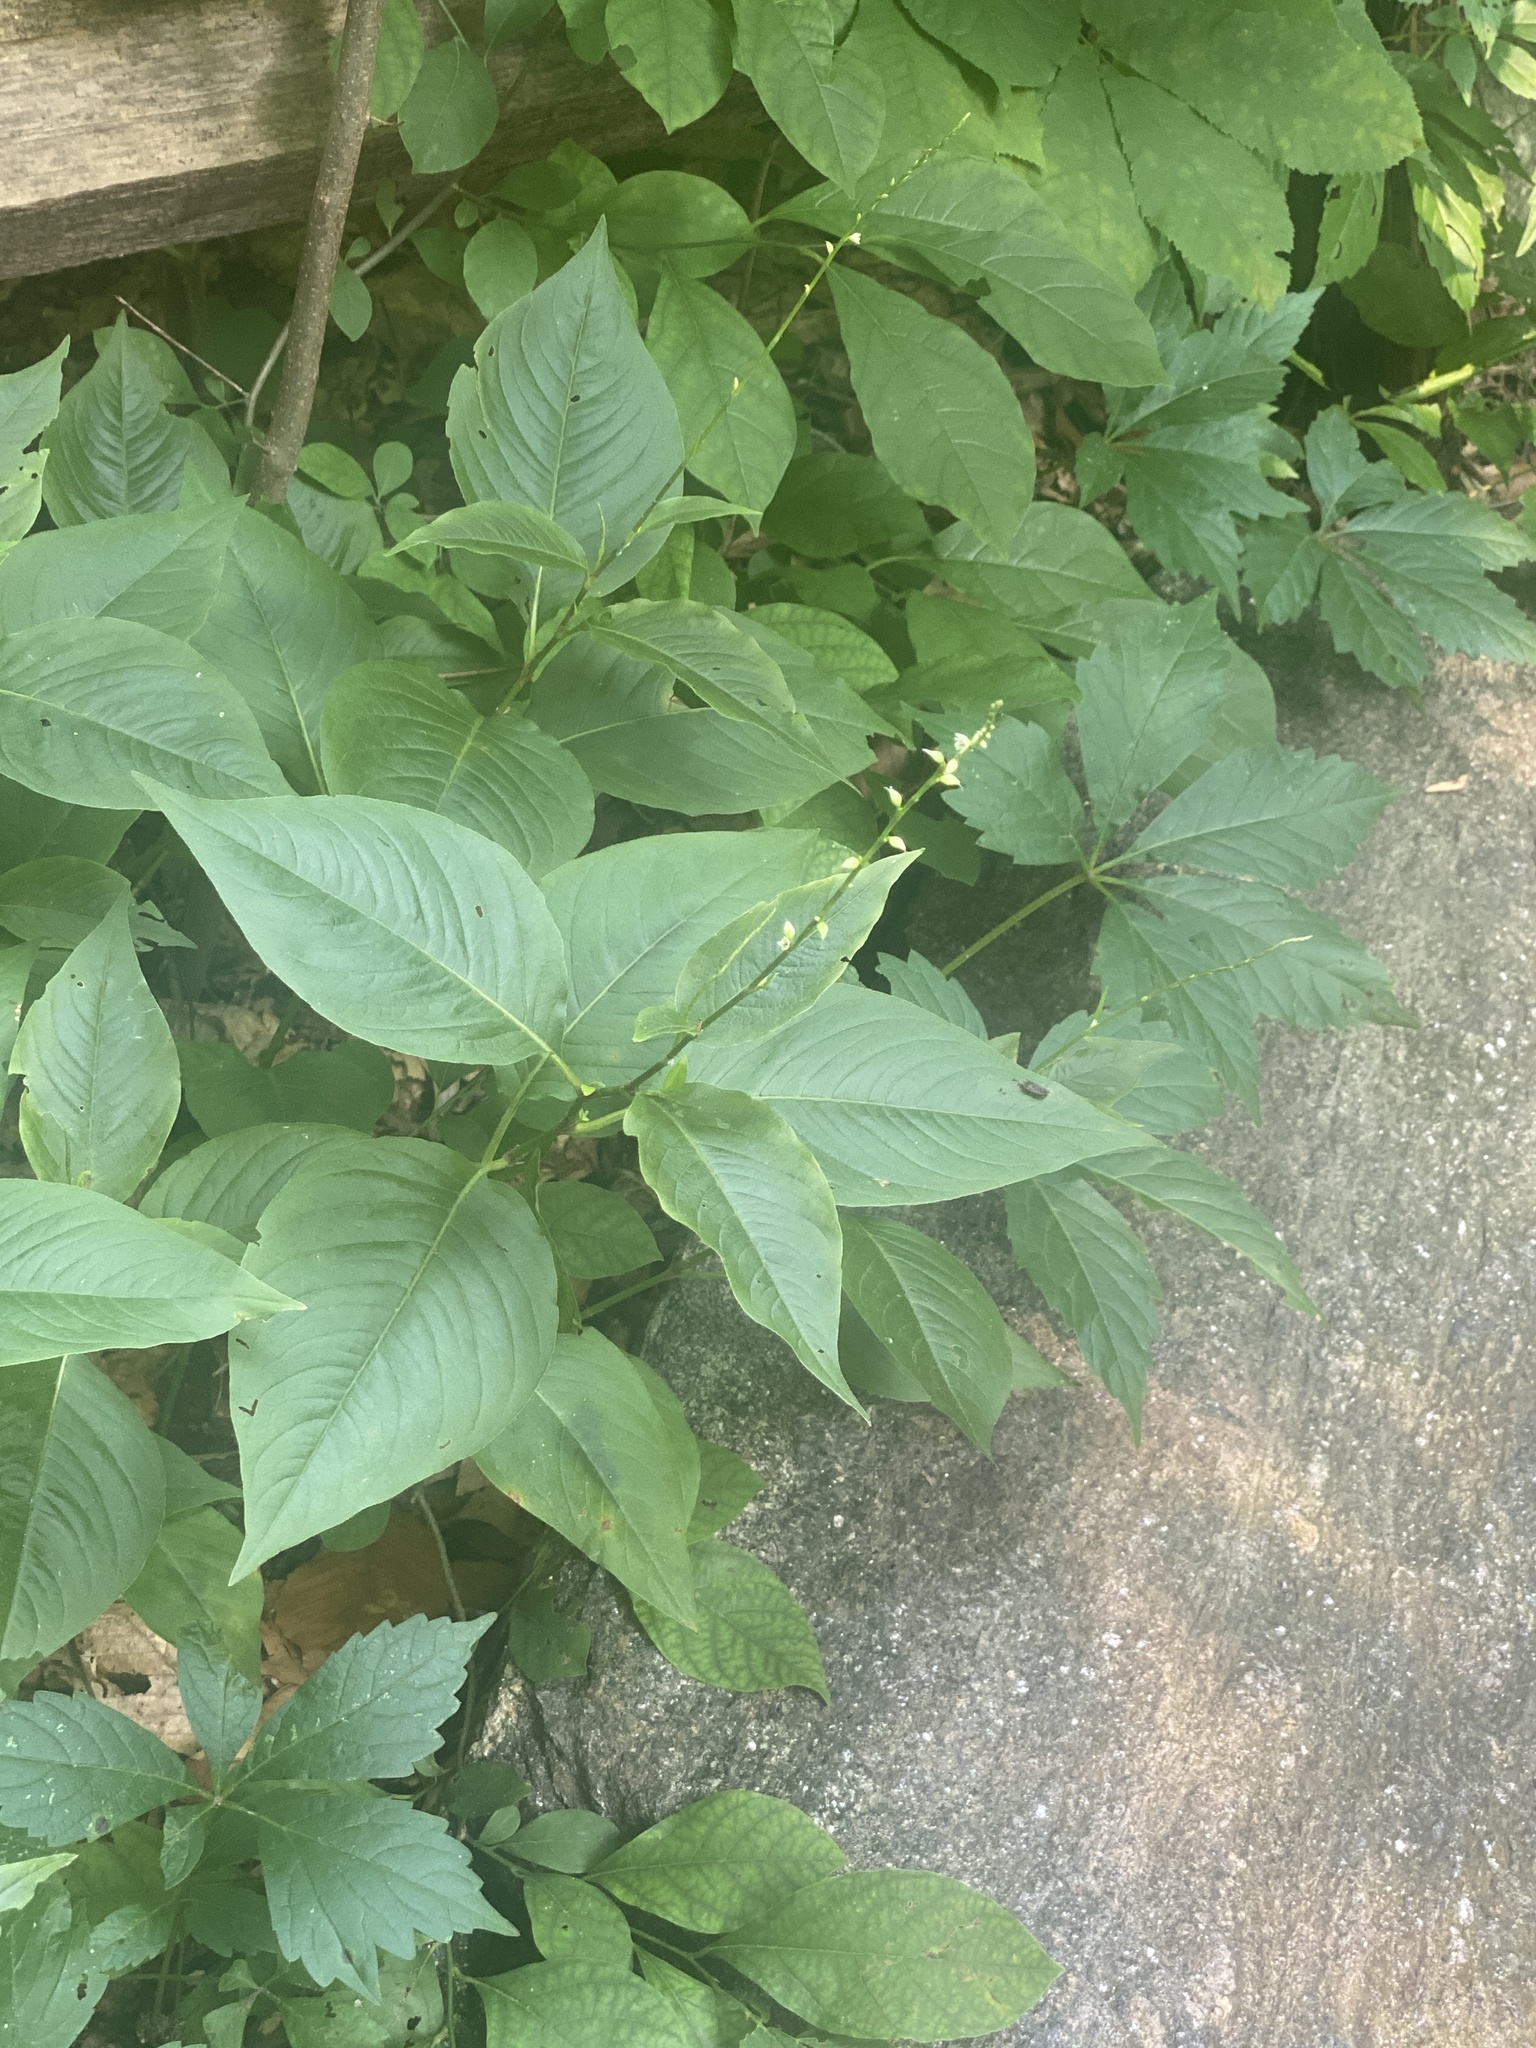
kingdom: Plantae
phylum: Tracheophyta
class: Magnoliopsida
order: Caryophyllales
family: Polygonaceae
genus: Persicaria
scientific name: Persicaria virginiana
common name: Jumpseed
